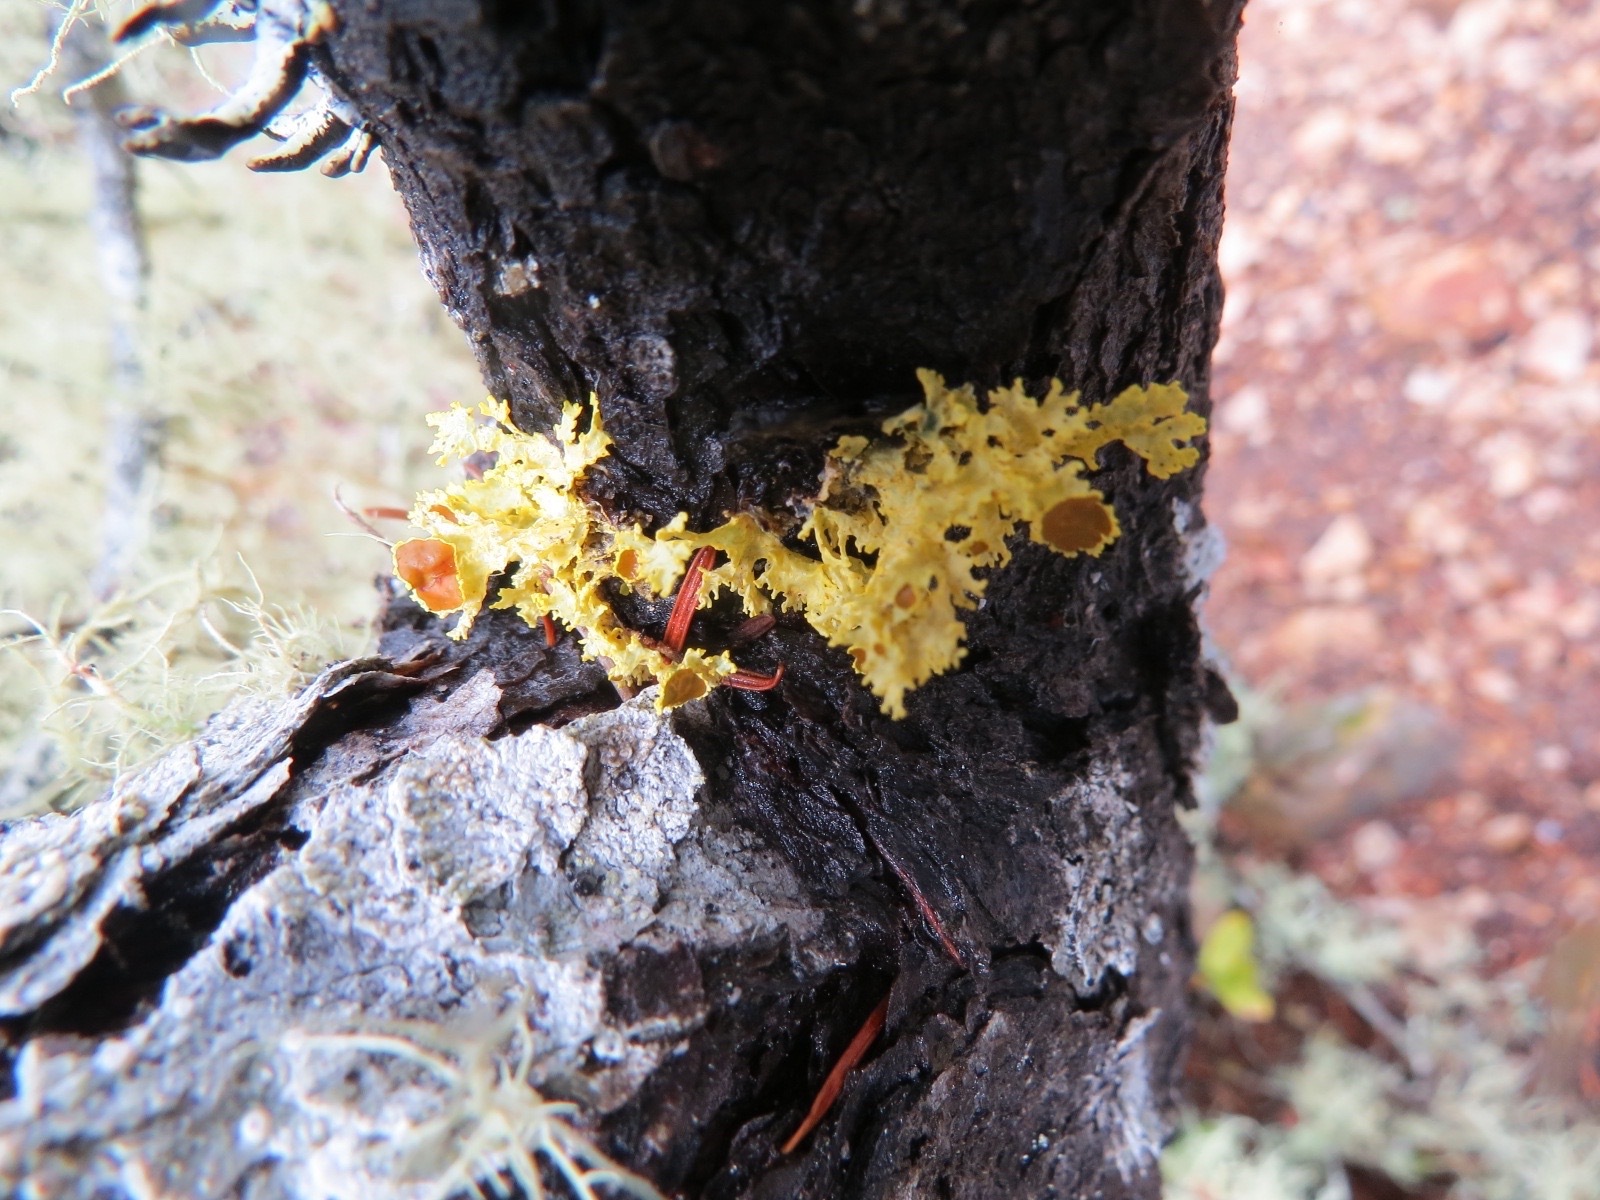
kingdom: Fungi
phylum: Ascomycota
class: Lecanoromycetes
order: Lecanorales
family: Parmeliaceae
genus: Vulpicida
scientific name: Vulpicida canadensis
